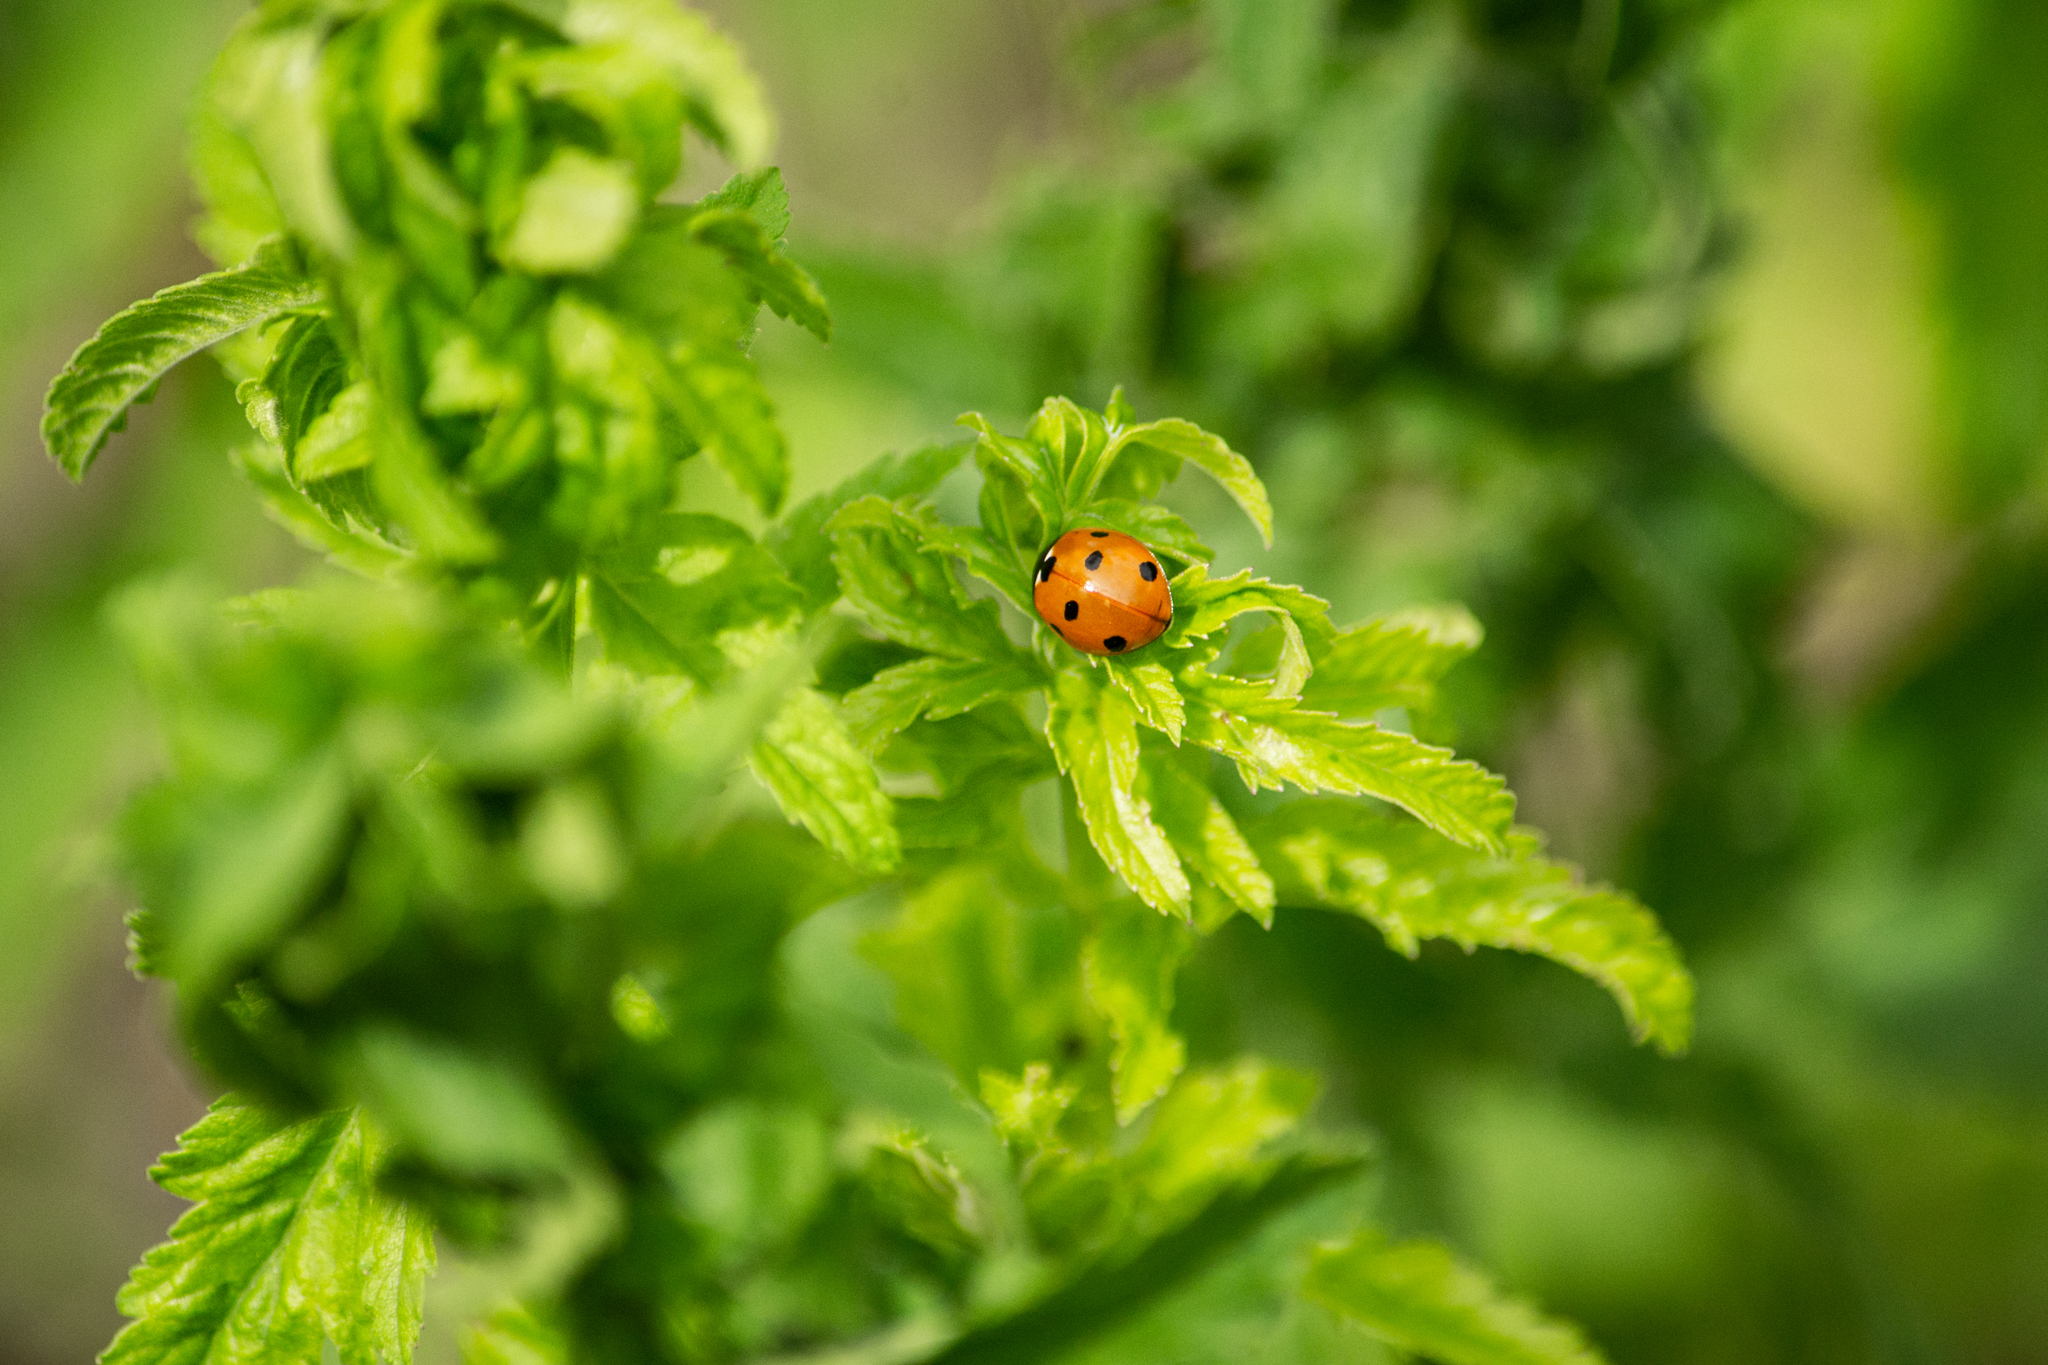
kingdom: Animalia
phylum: Arthropoda
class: Insecta
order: Coleoptera
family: Coccinellidae
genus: Coccinella
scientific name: Coccinella septempunctata
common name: Sevenspotted lady beetle
